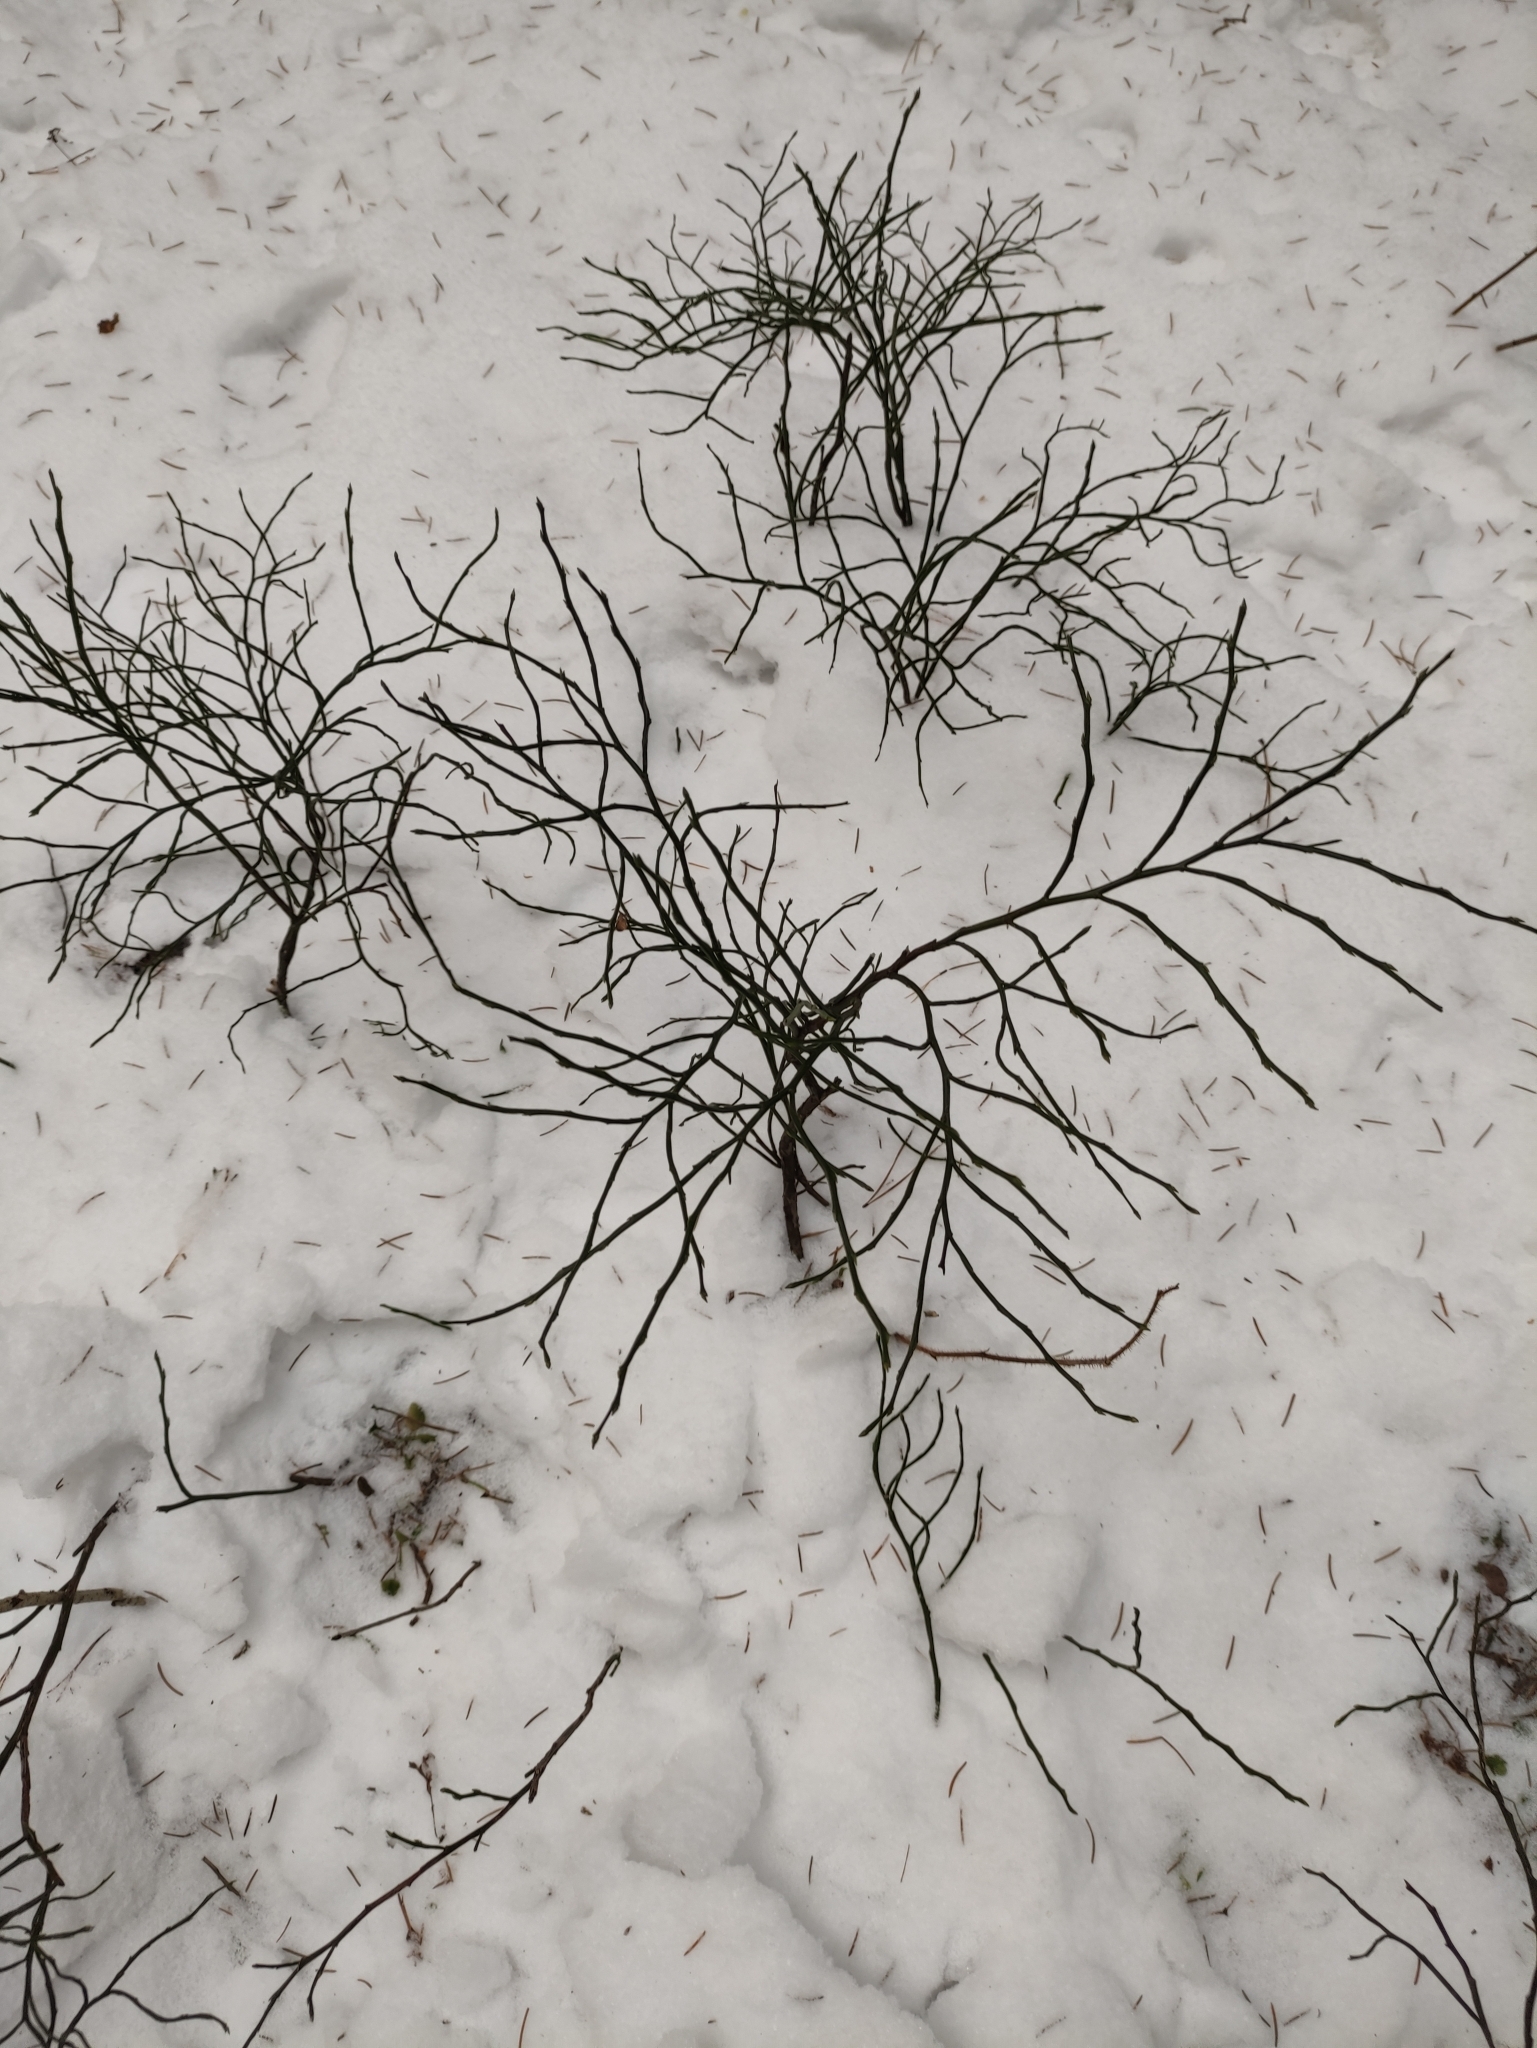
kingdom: Plantae
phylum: Tracheophyta
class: Magnoliopsida
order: Ericales
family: Ericaceae
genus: Vaccinium
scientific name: Vaccinium myrtillus
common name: Bilberry
